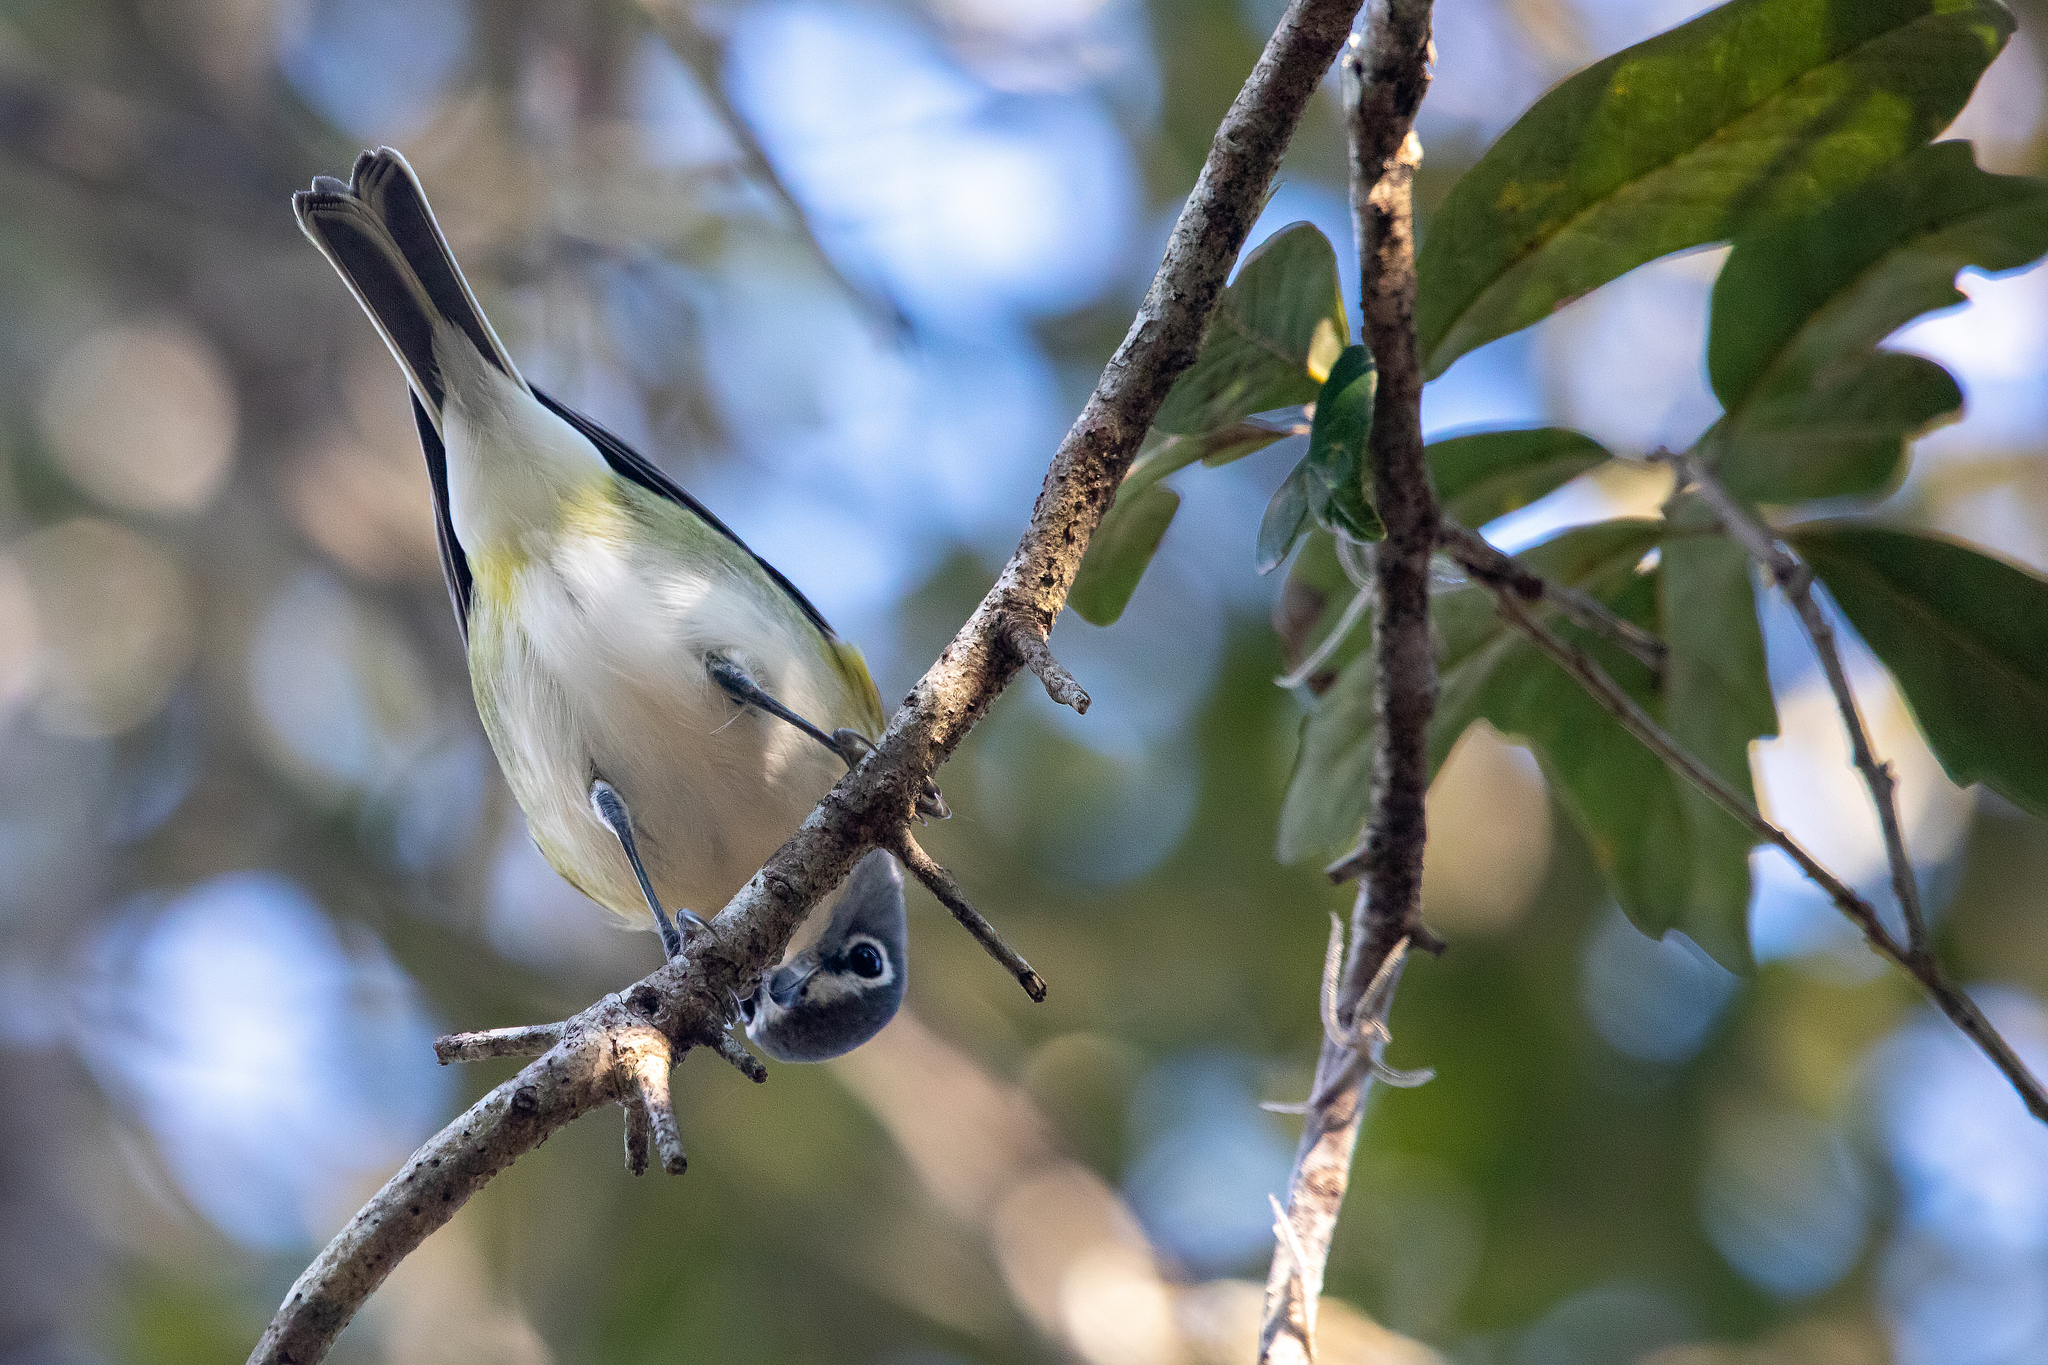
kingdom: Animalia
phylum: Chordata
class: Aves
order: Passeriformes
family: Vireonidae
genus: Vireo
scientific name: Vireo solitarius
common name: Blue-headed vireo
